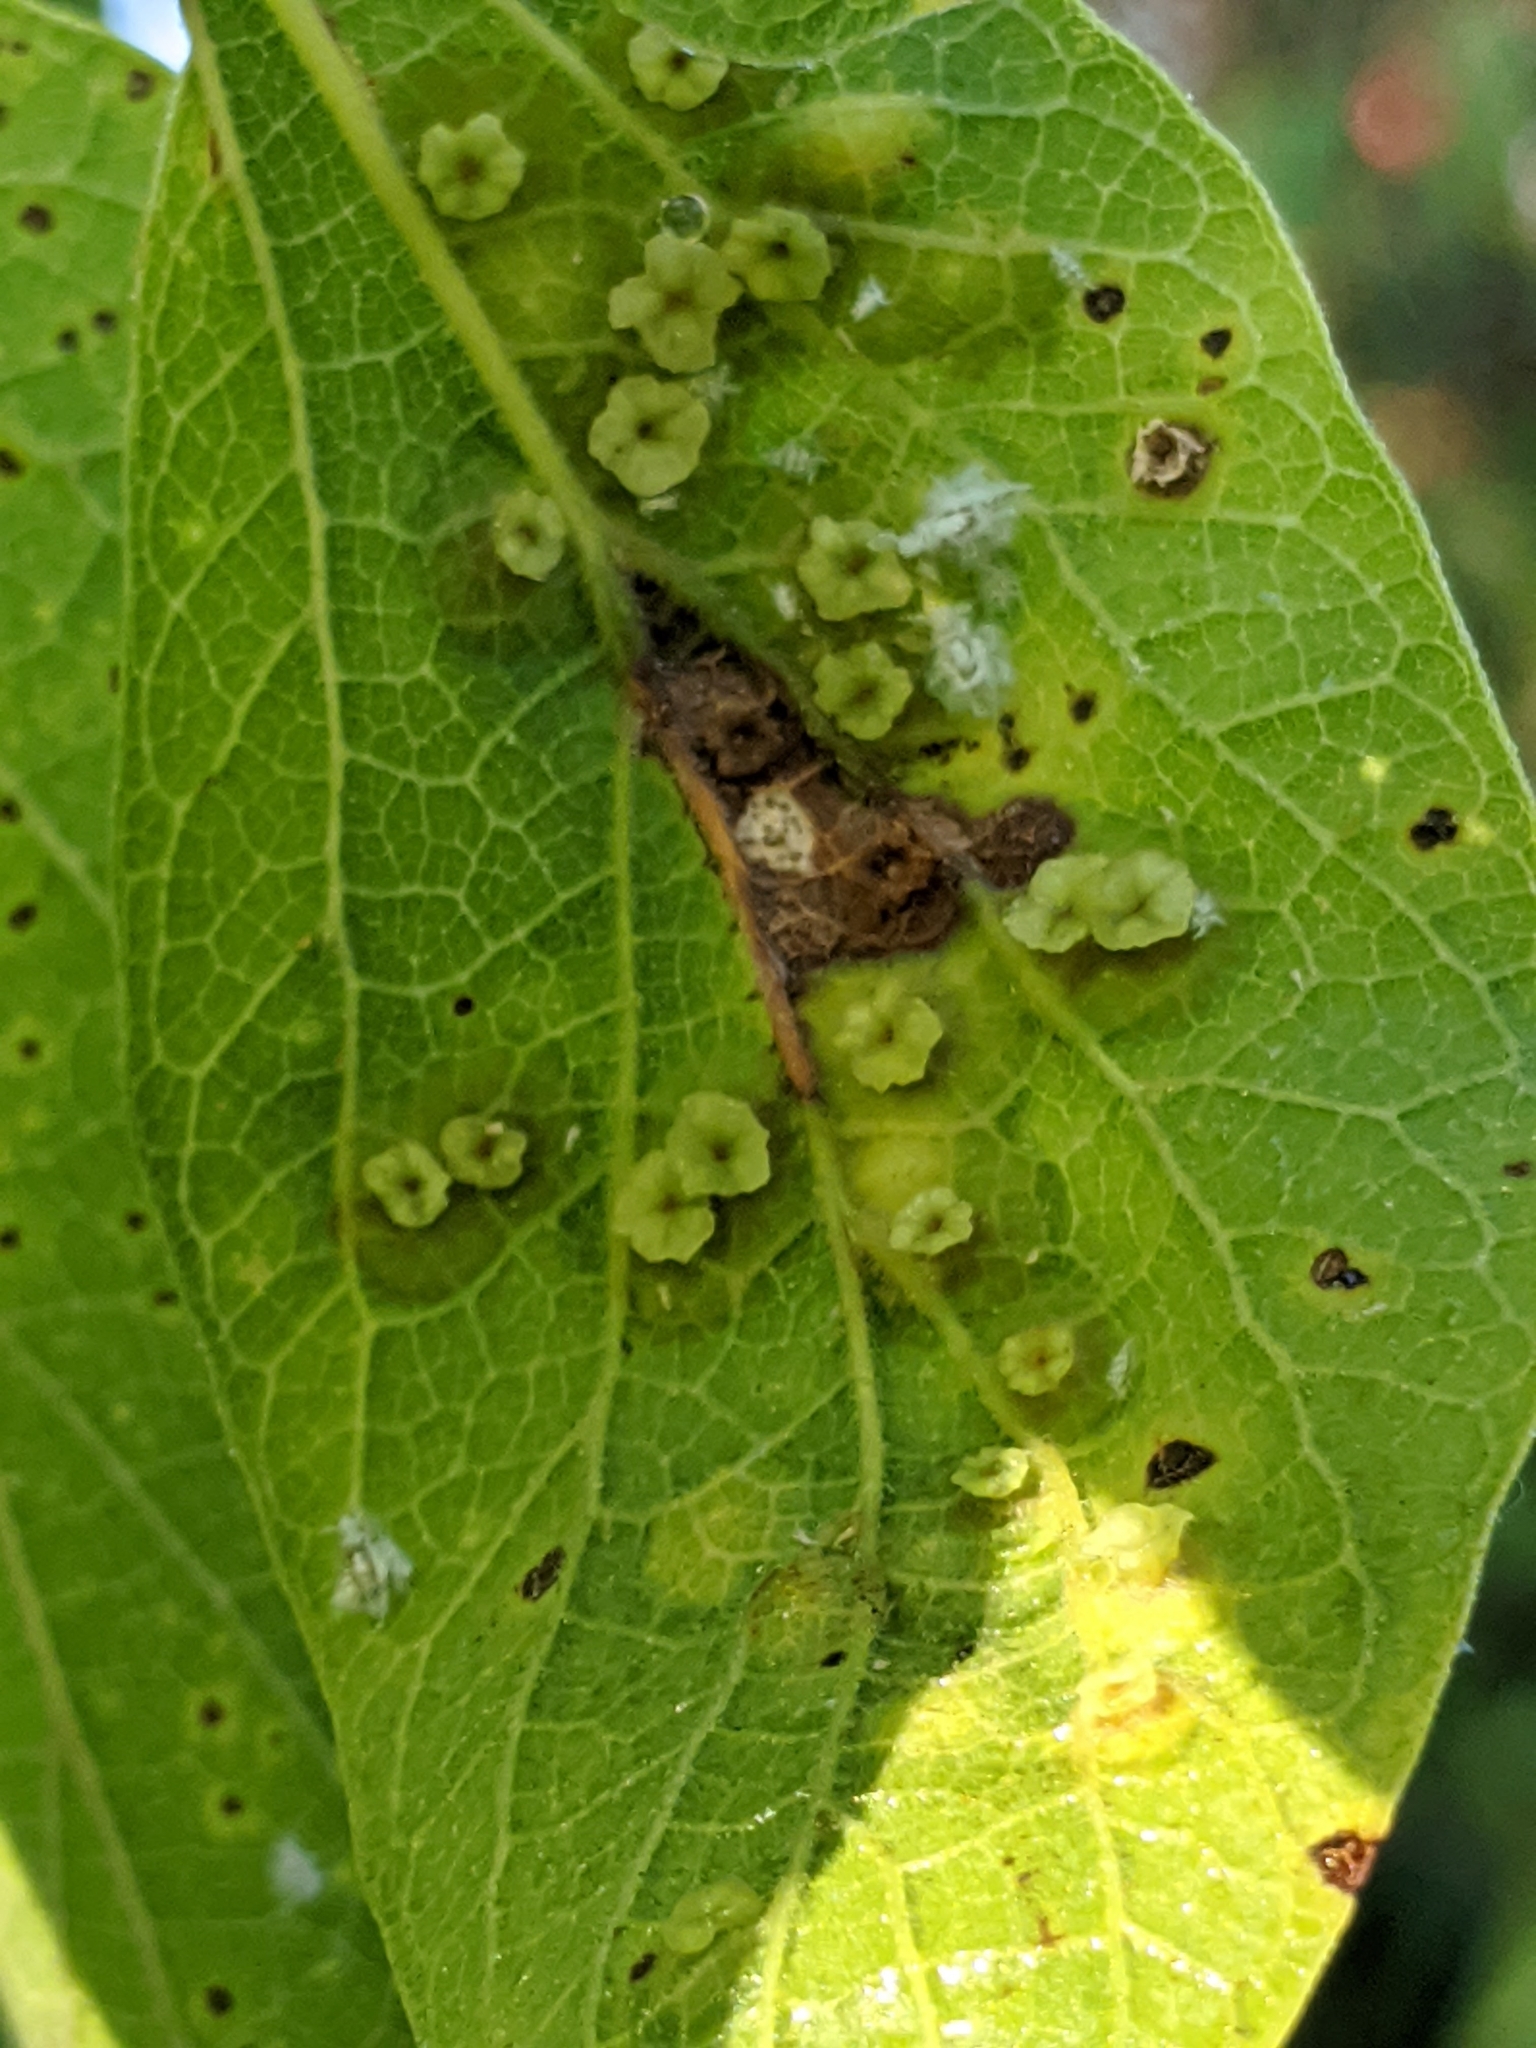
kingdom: Animalia
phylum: Arthropoda
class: Insecta
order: Hemiptera
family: Aphalaridae
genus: Pachypsylla
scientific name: Pachypsylla celtidisasterisca
